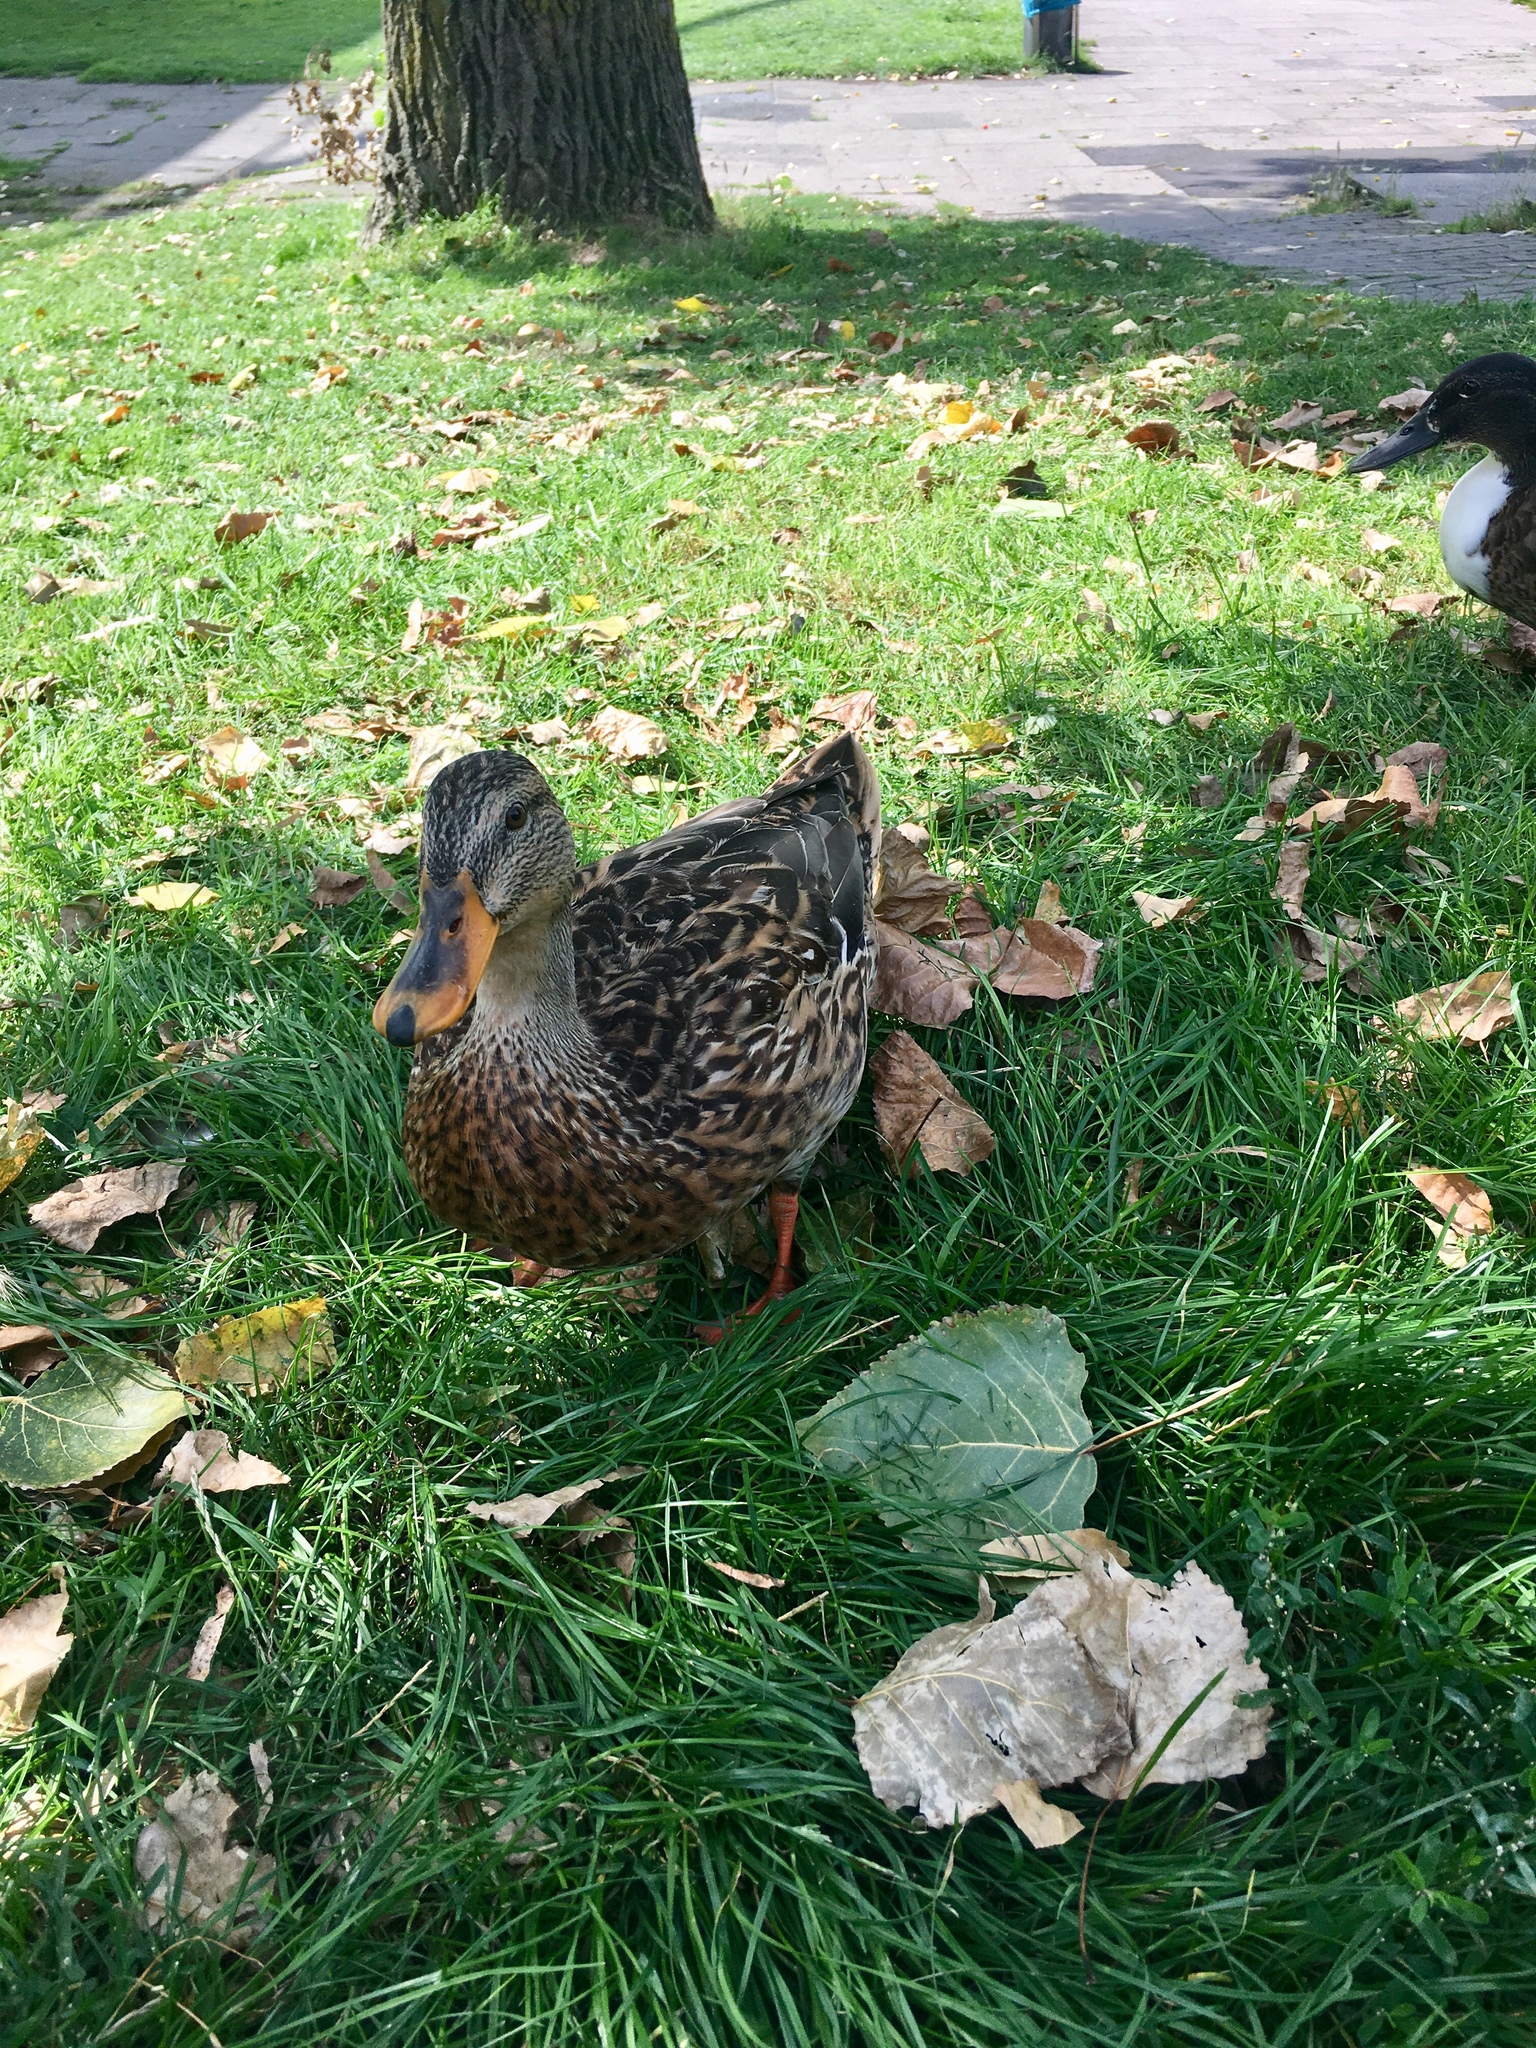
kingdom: Animalia
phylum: Chordata
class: Aves
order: Anseriformes
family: Anatidae
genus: Anas
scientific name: Anas platyrhynchos
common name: Mallard
